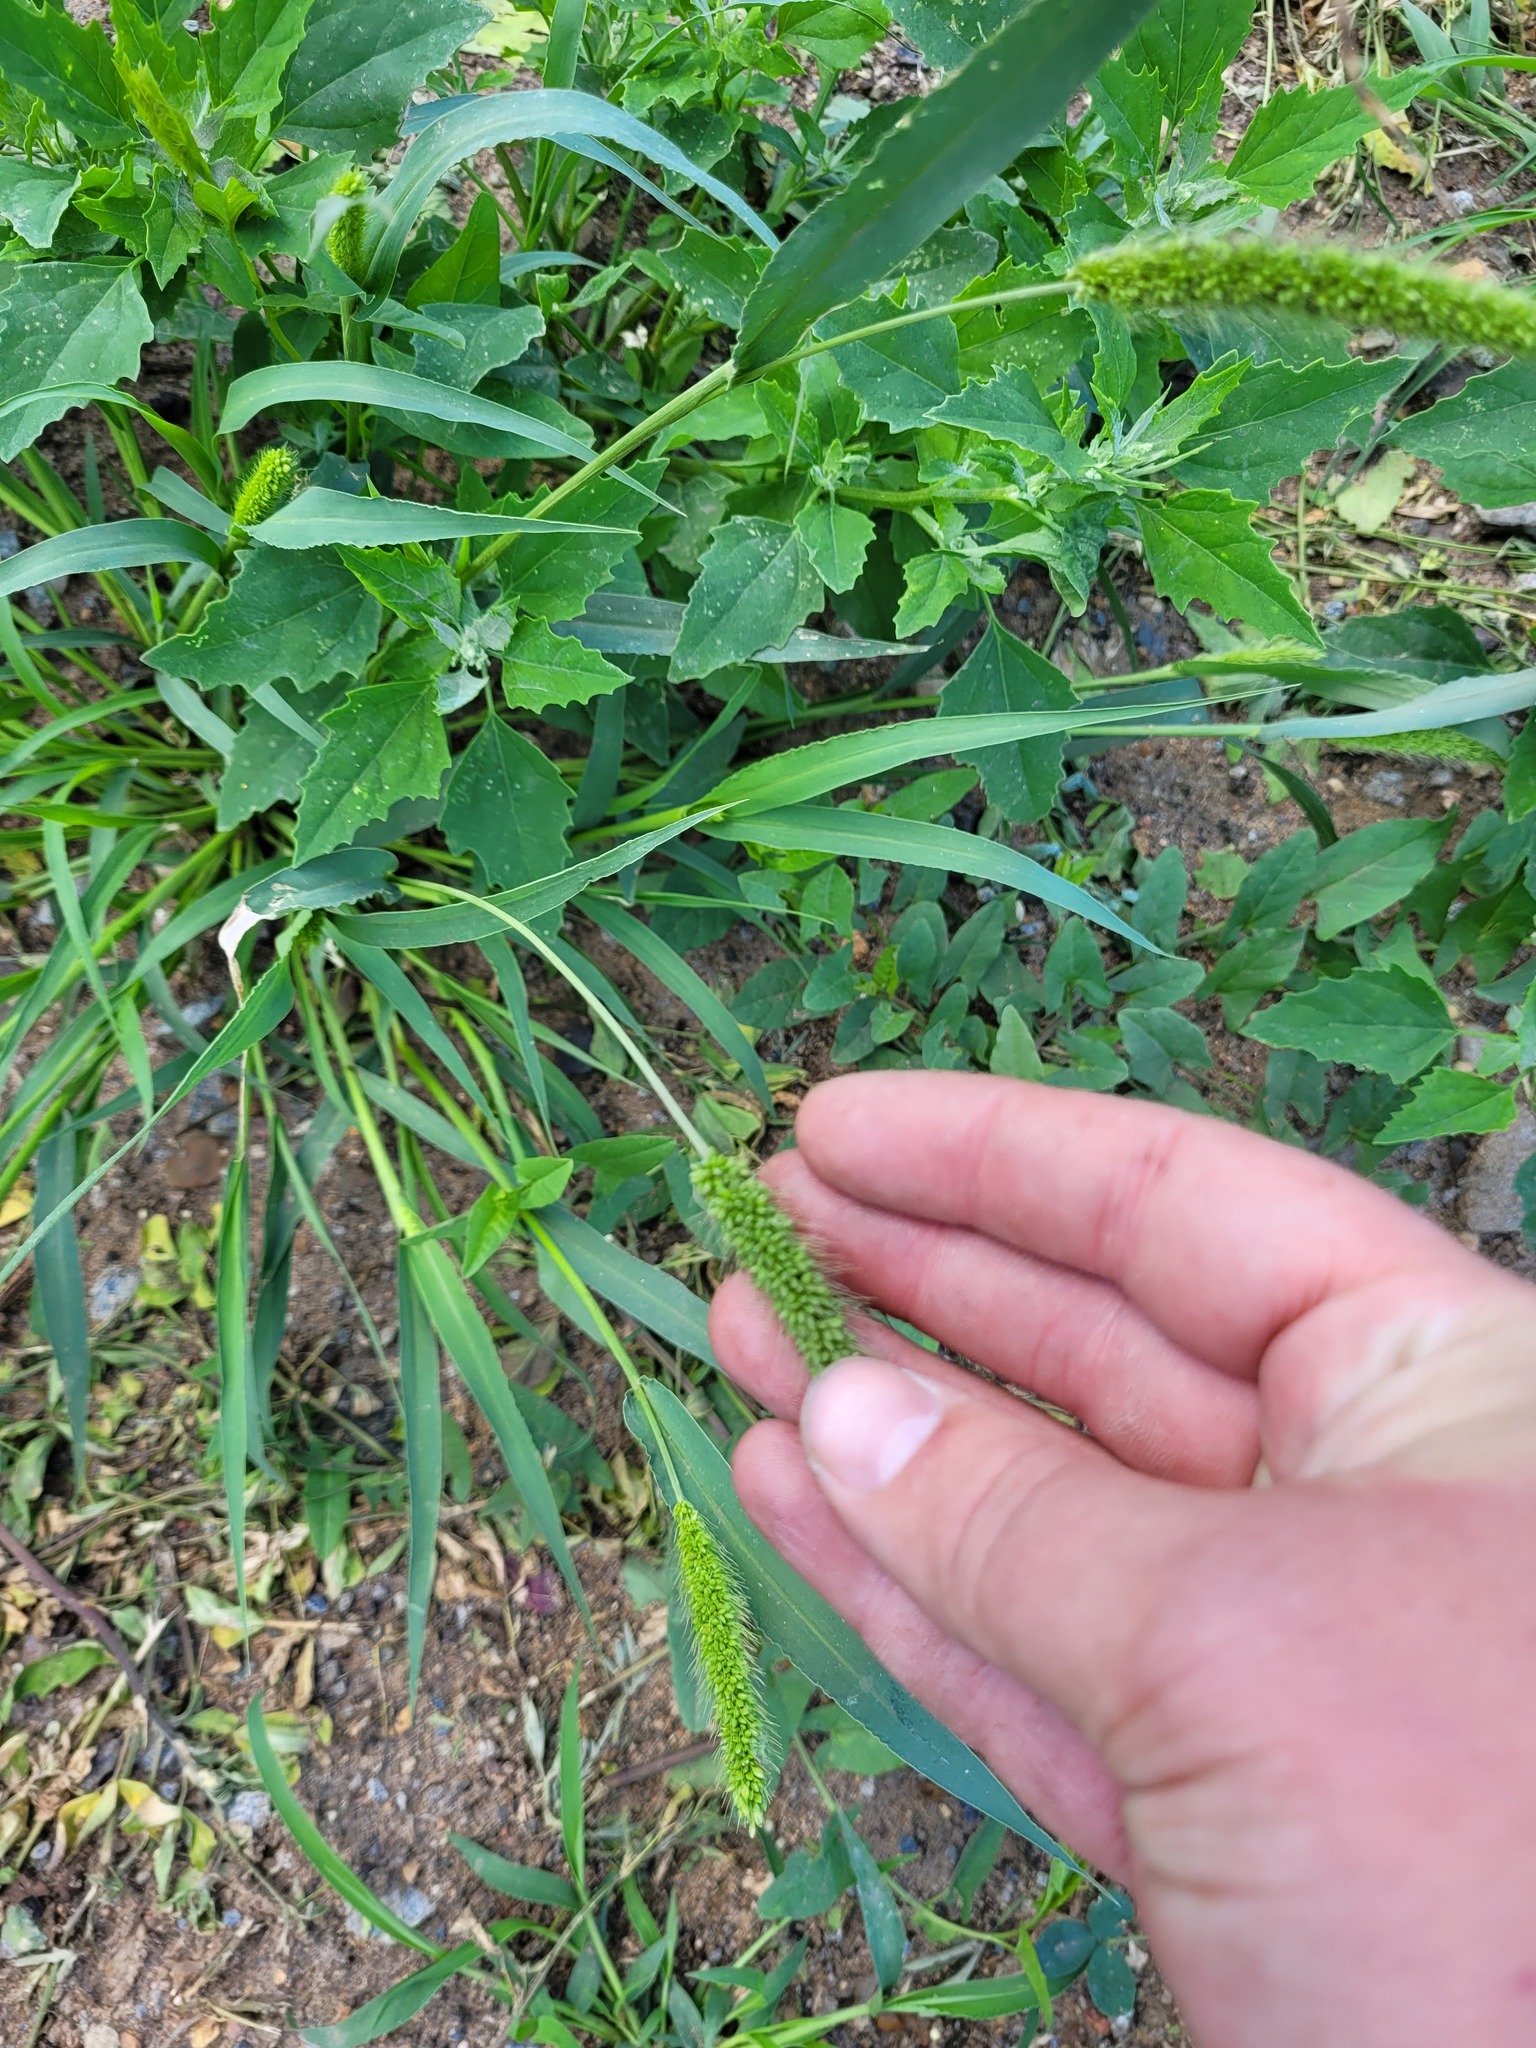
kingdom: Plantae
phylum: Tracheophyta
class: Liliopsida
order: Poales
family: Poaceae
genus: Setaria
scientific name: Setaria viridis
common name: Green bristlegrass
